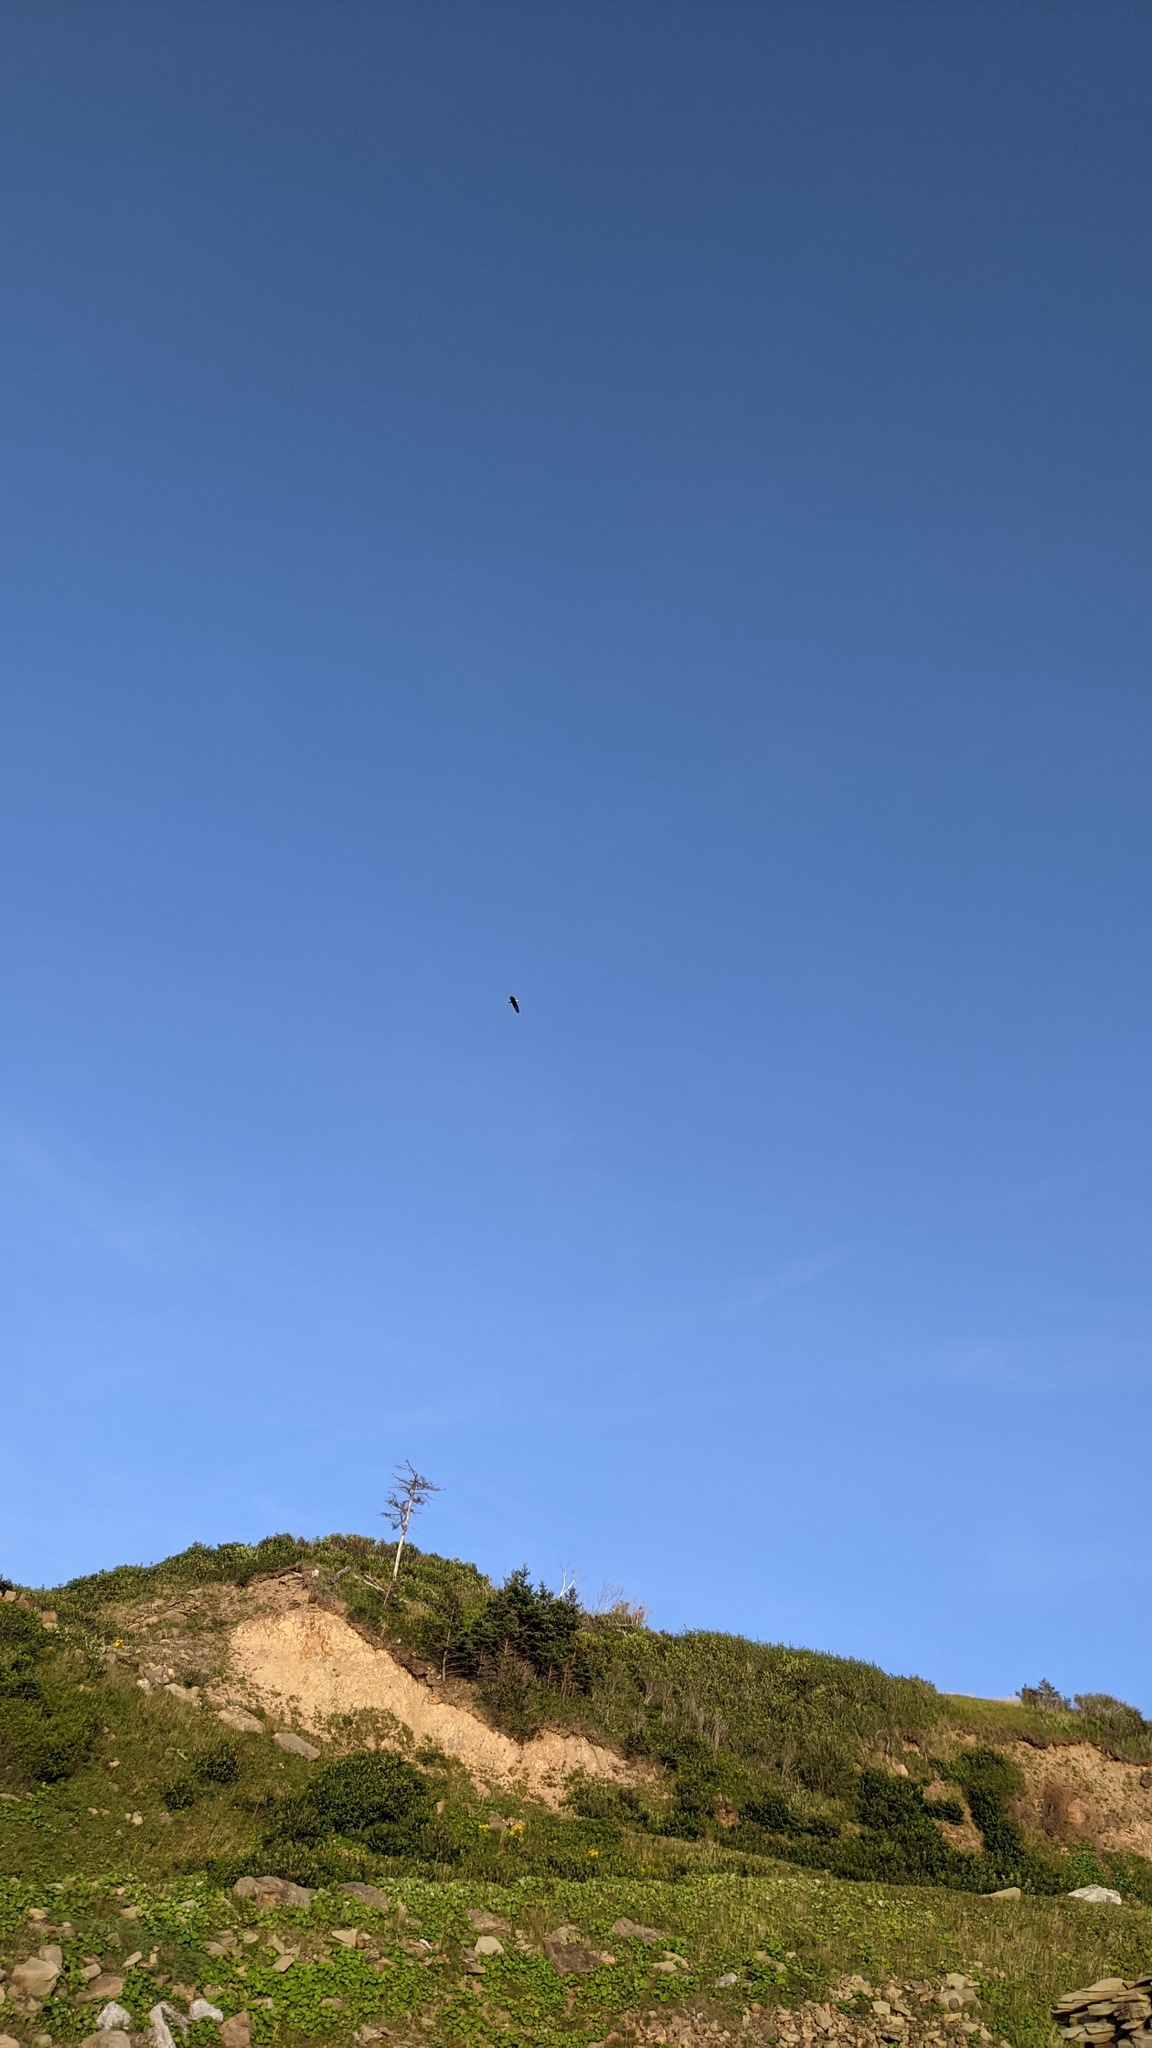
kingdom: Animalia
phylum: Chordata
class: Aves
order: Accipitriformes
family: Accipitridae
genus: Haliaeetus
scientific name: Haliaeetus leucocephalus
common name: Bald eagle
